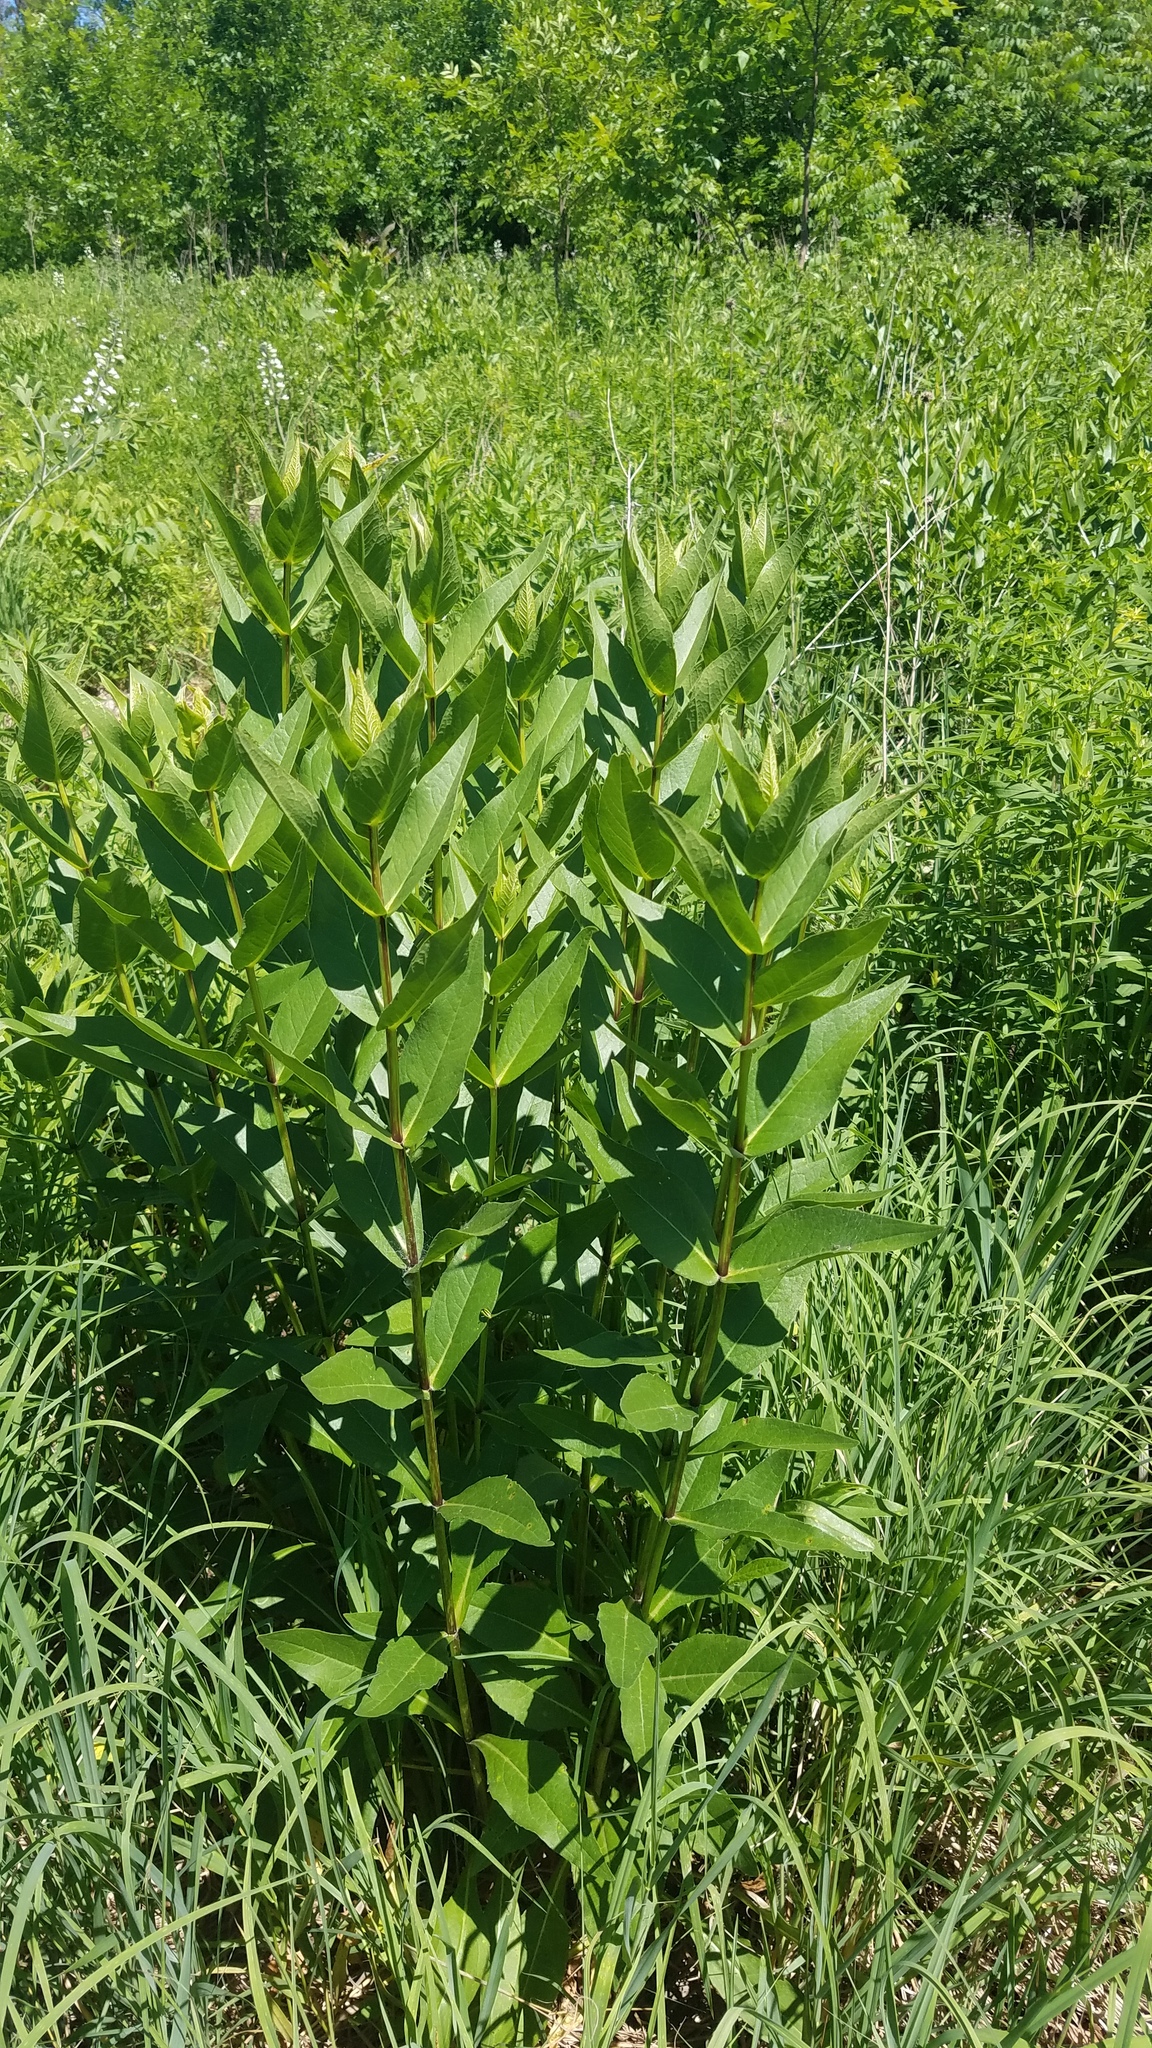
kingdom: Plantae
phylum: Tracheophyta
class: Magnoliopsida
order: Asterales
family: Asteraceae
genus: Silphium
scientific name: Silphium integrifolium
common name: Whole-leaf rosinweed
